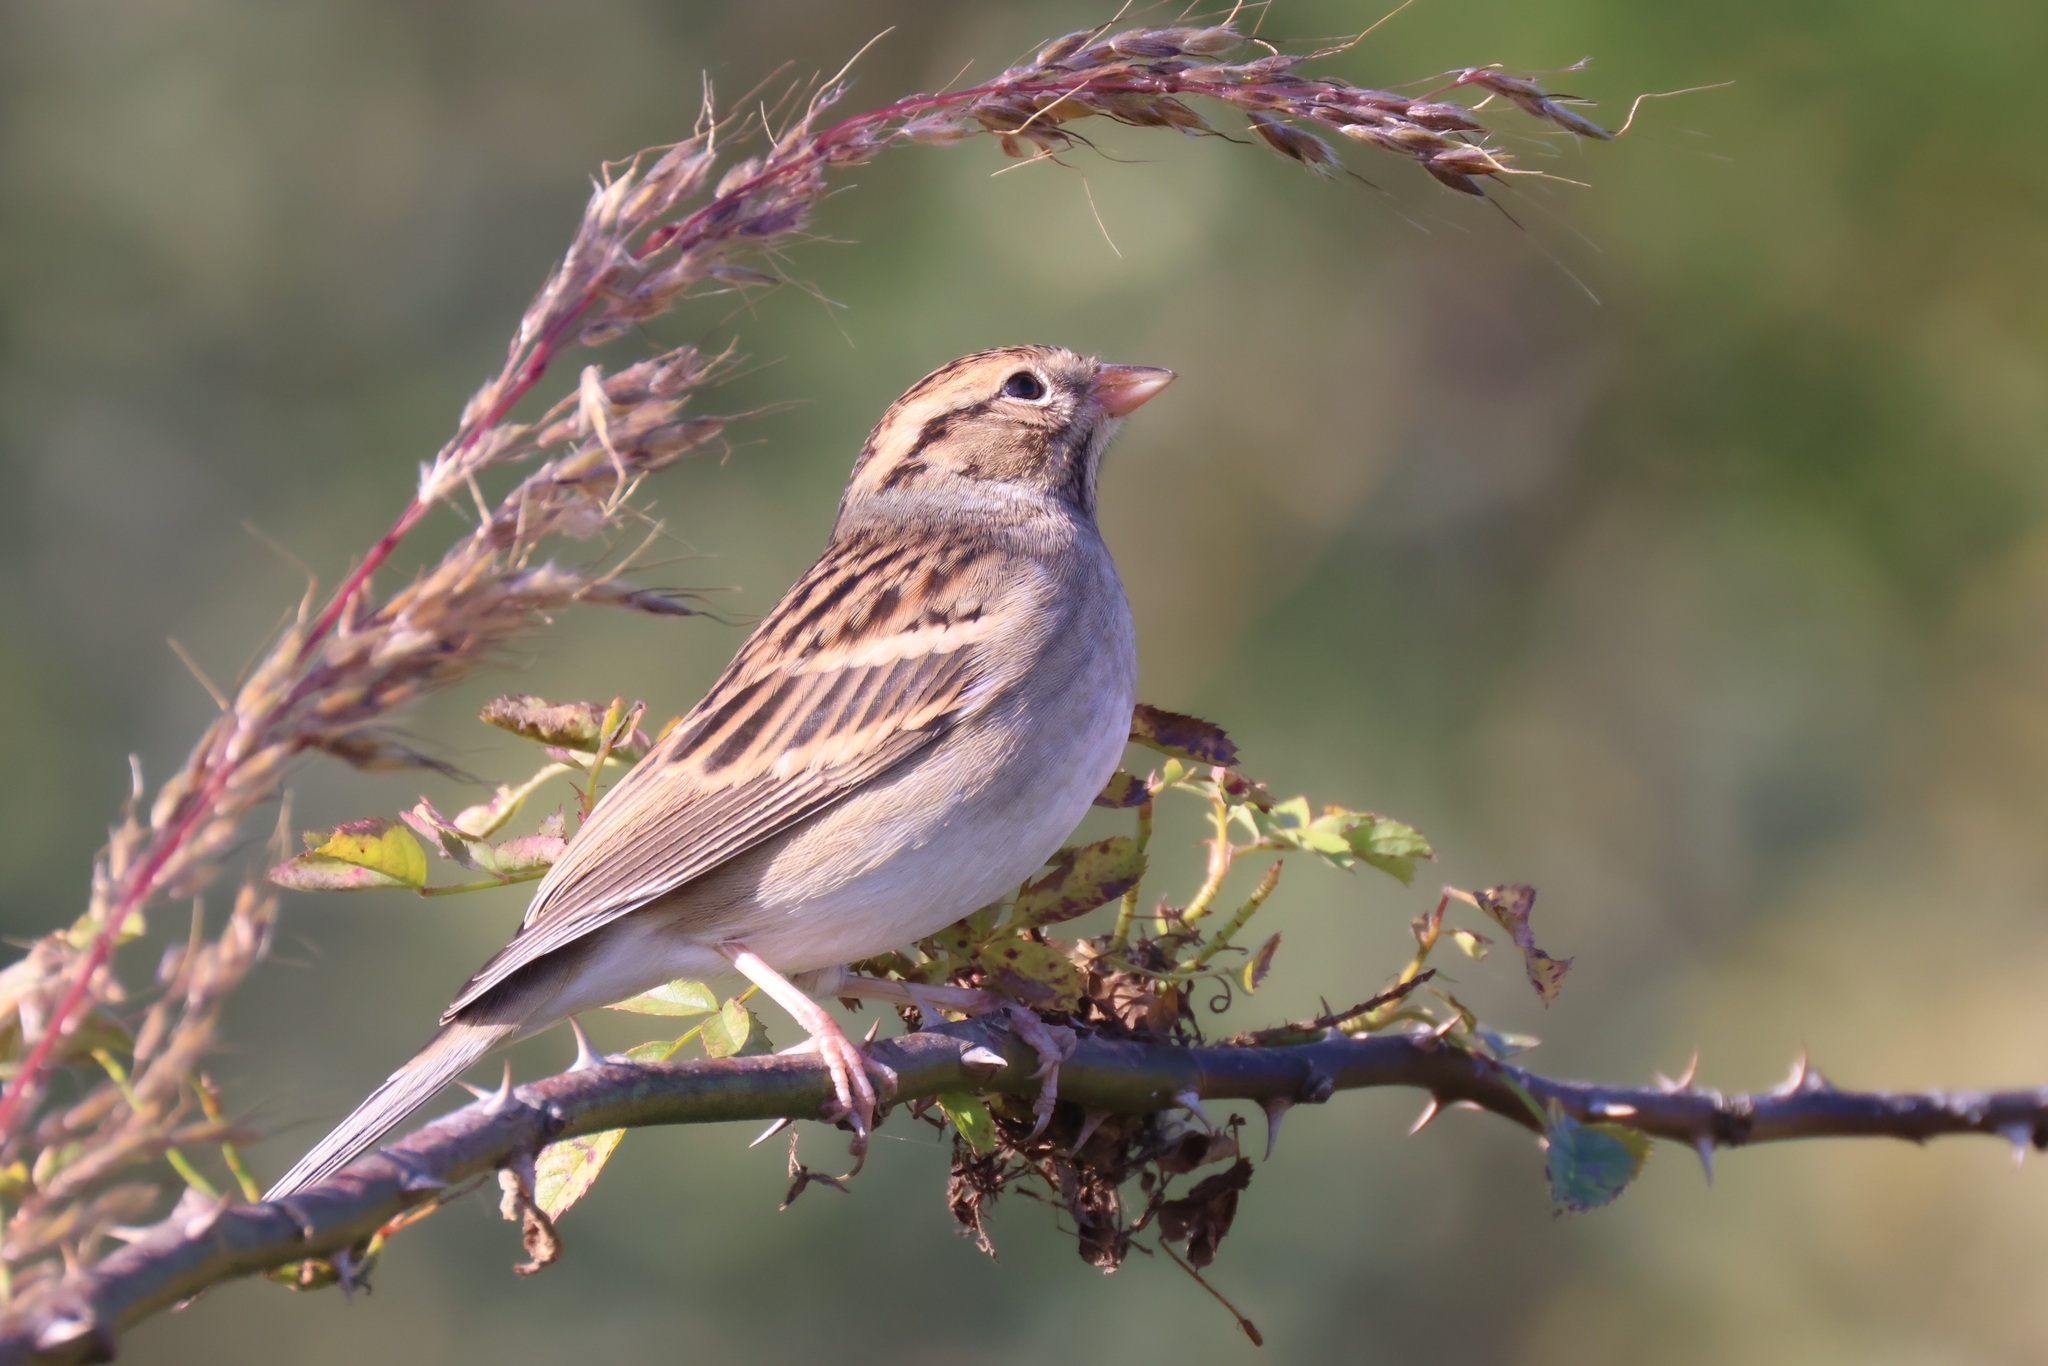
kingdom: Animalia
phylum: Chordata
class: Aves
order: Passeriformes
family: Passerellidae
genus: Spizella
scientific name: Spizella passerina
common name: Chipping sparrow
